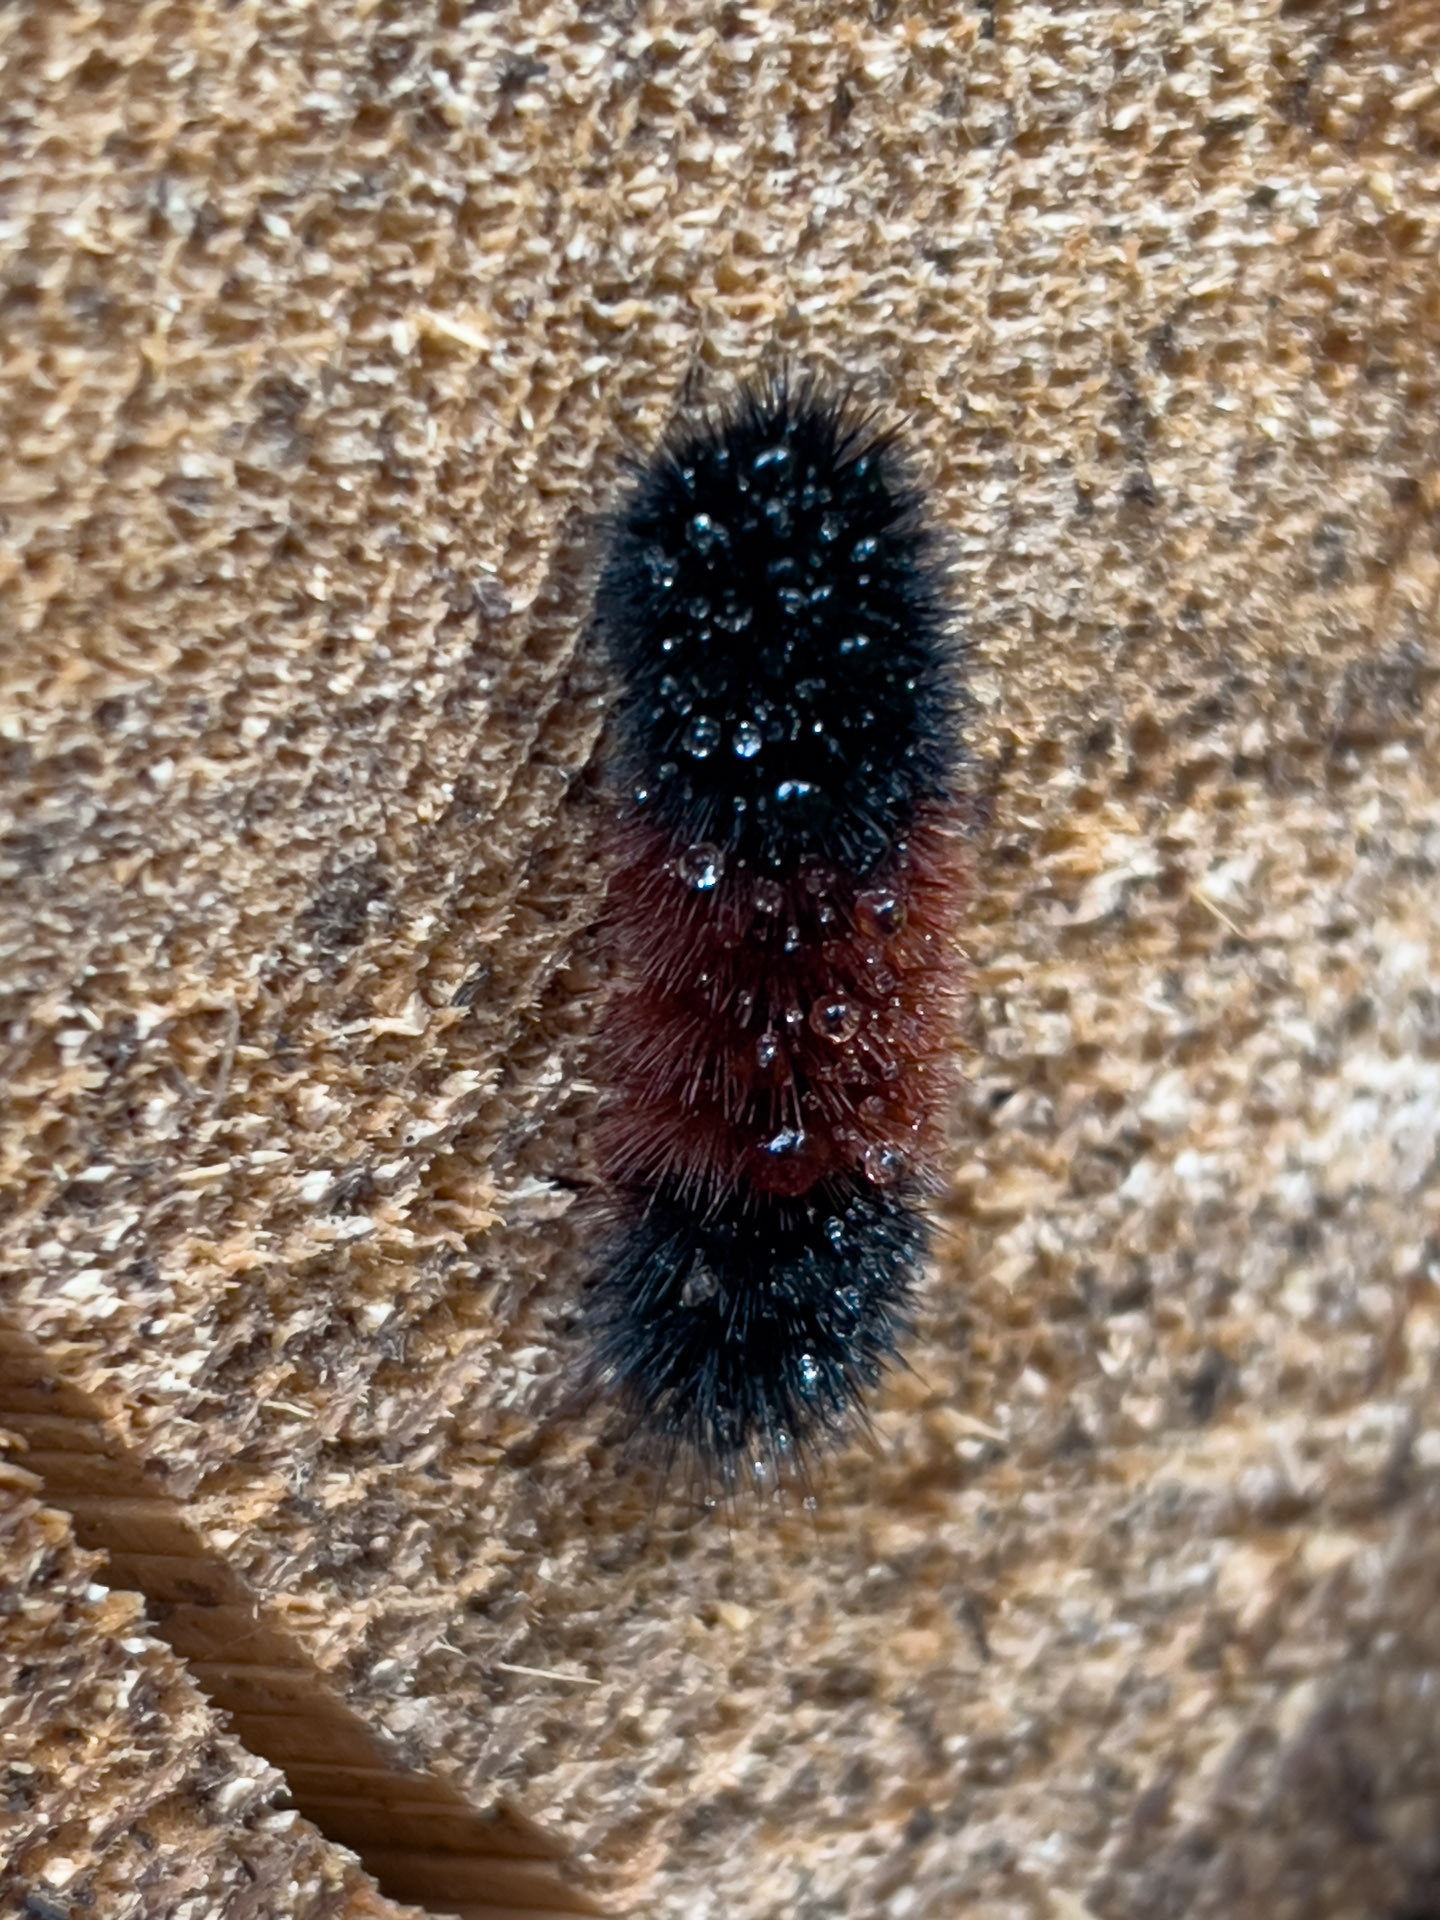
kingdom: Animalia
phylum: Arthropoda
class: Insecta
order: Lepidoptera
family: Erebidae
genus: Pyrrharctia
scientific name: Pyrrharctia isabella
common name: Isabella tiger moth
